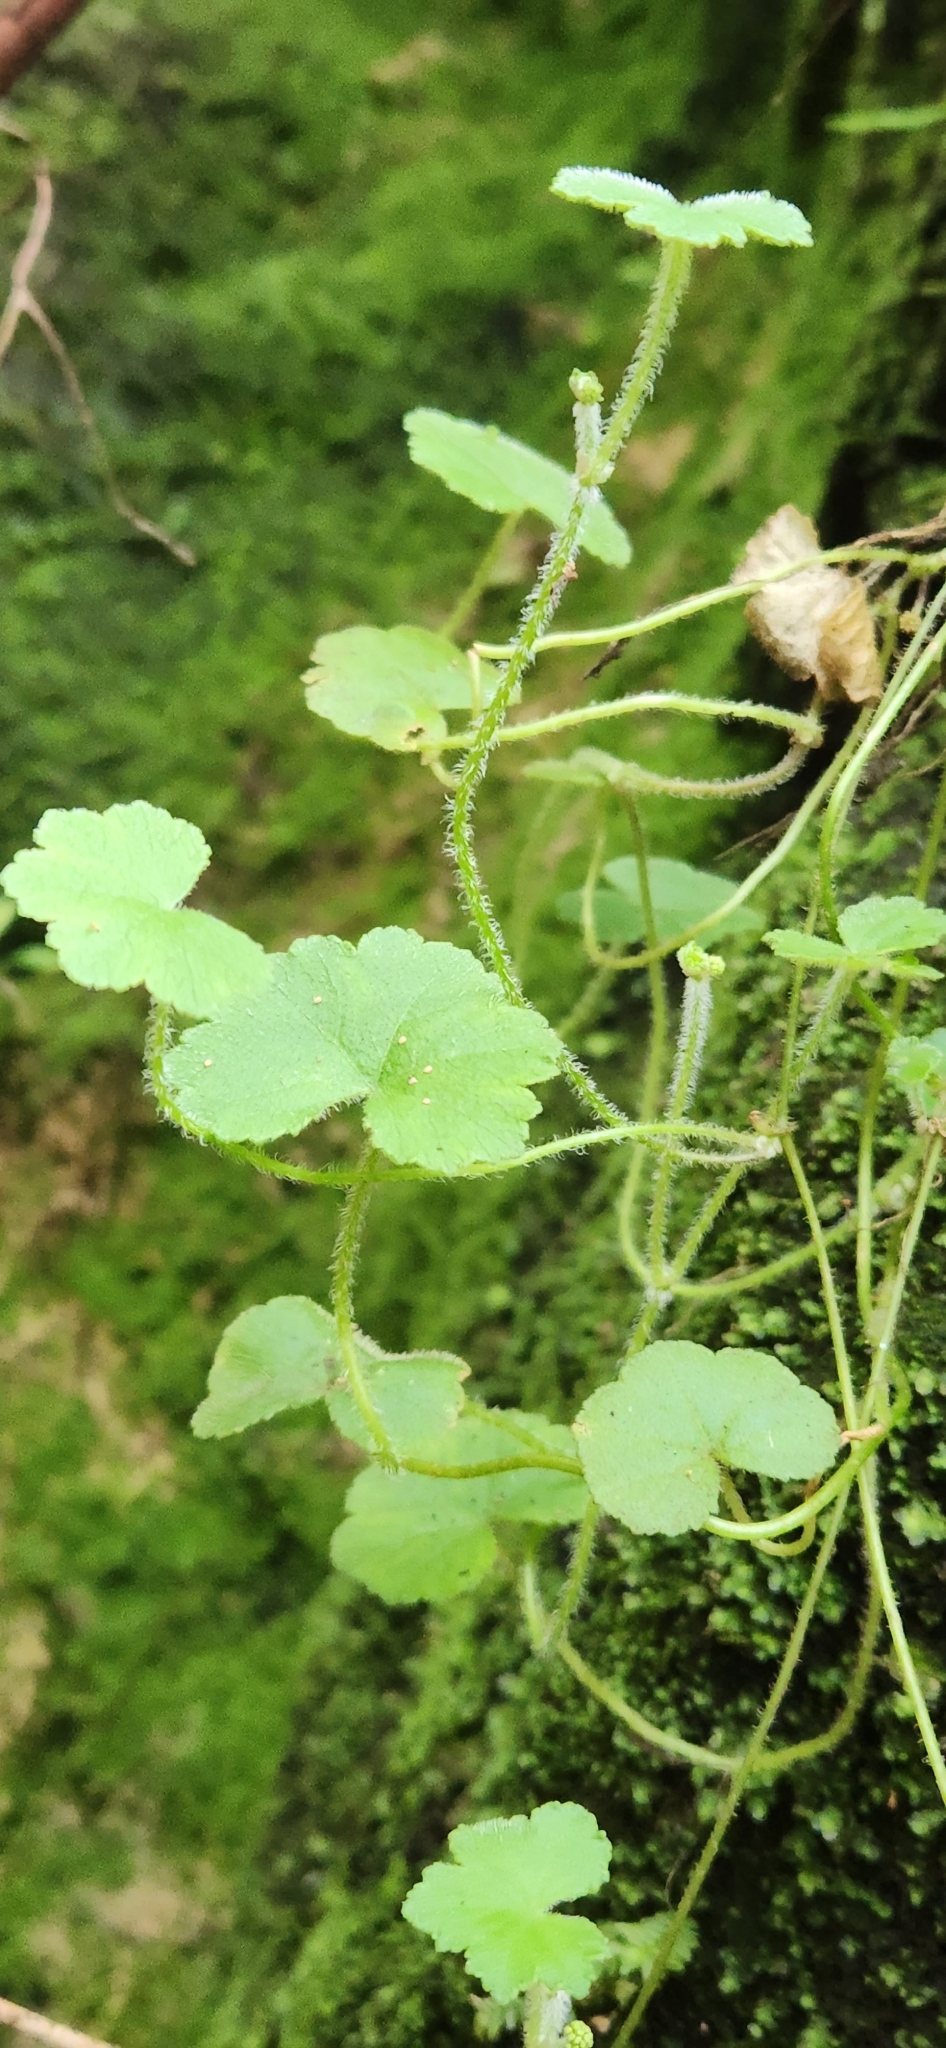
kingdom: Plantae
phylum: Tracheophyta
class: Magnoliopsida
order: Apiales
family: Araliaceae
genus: Hydrocotyle
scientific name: Hydrocotyle hirta
